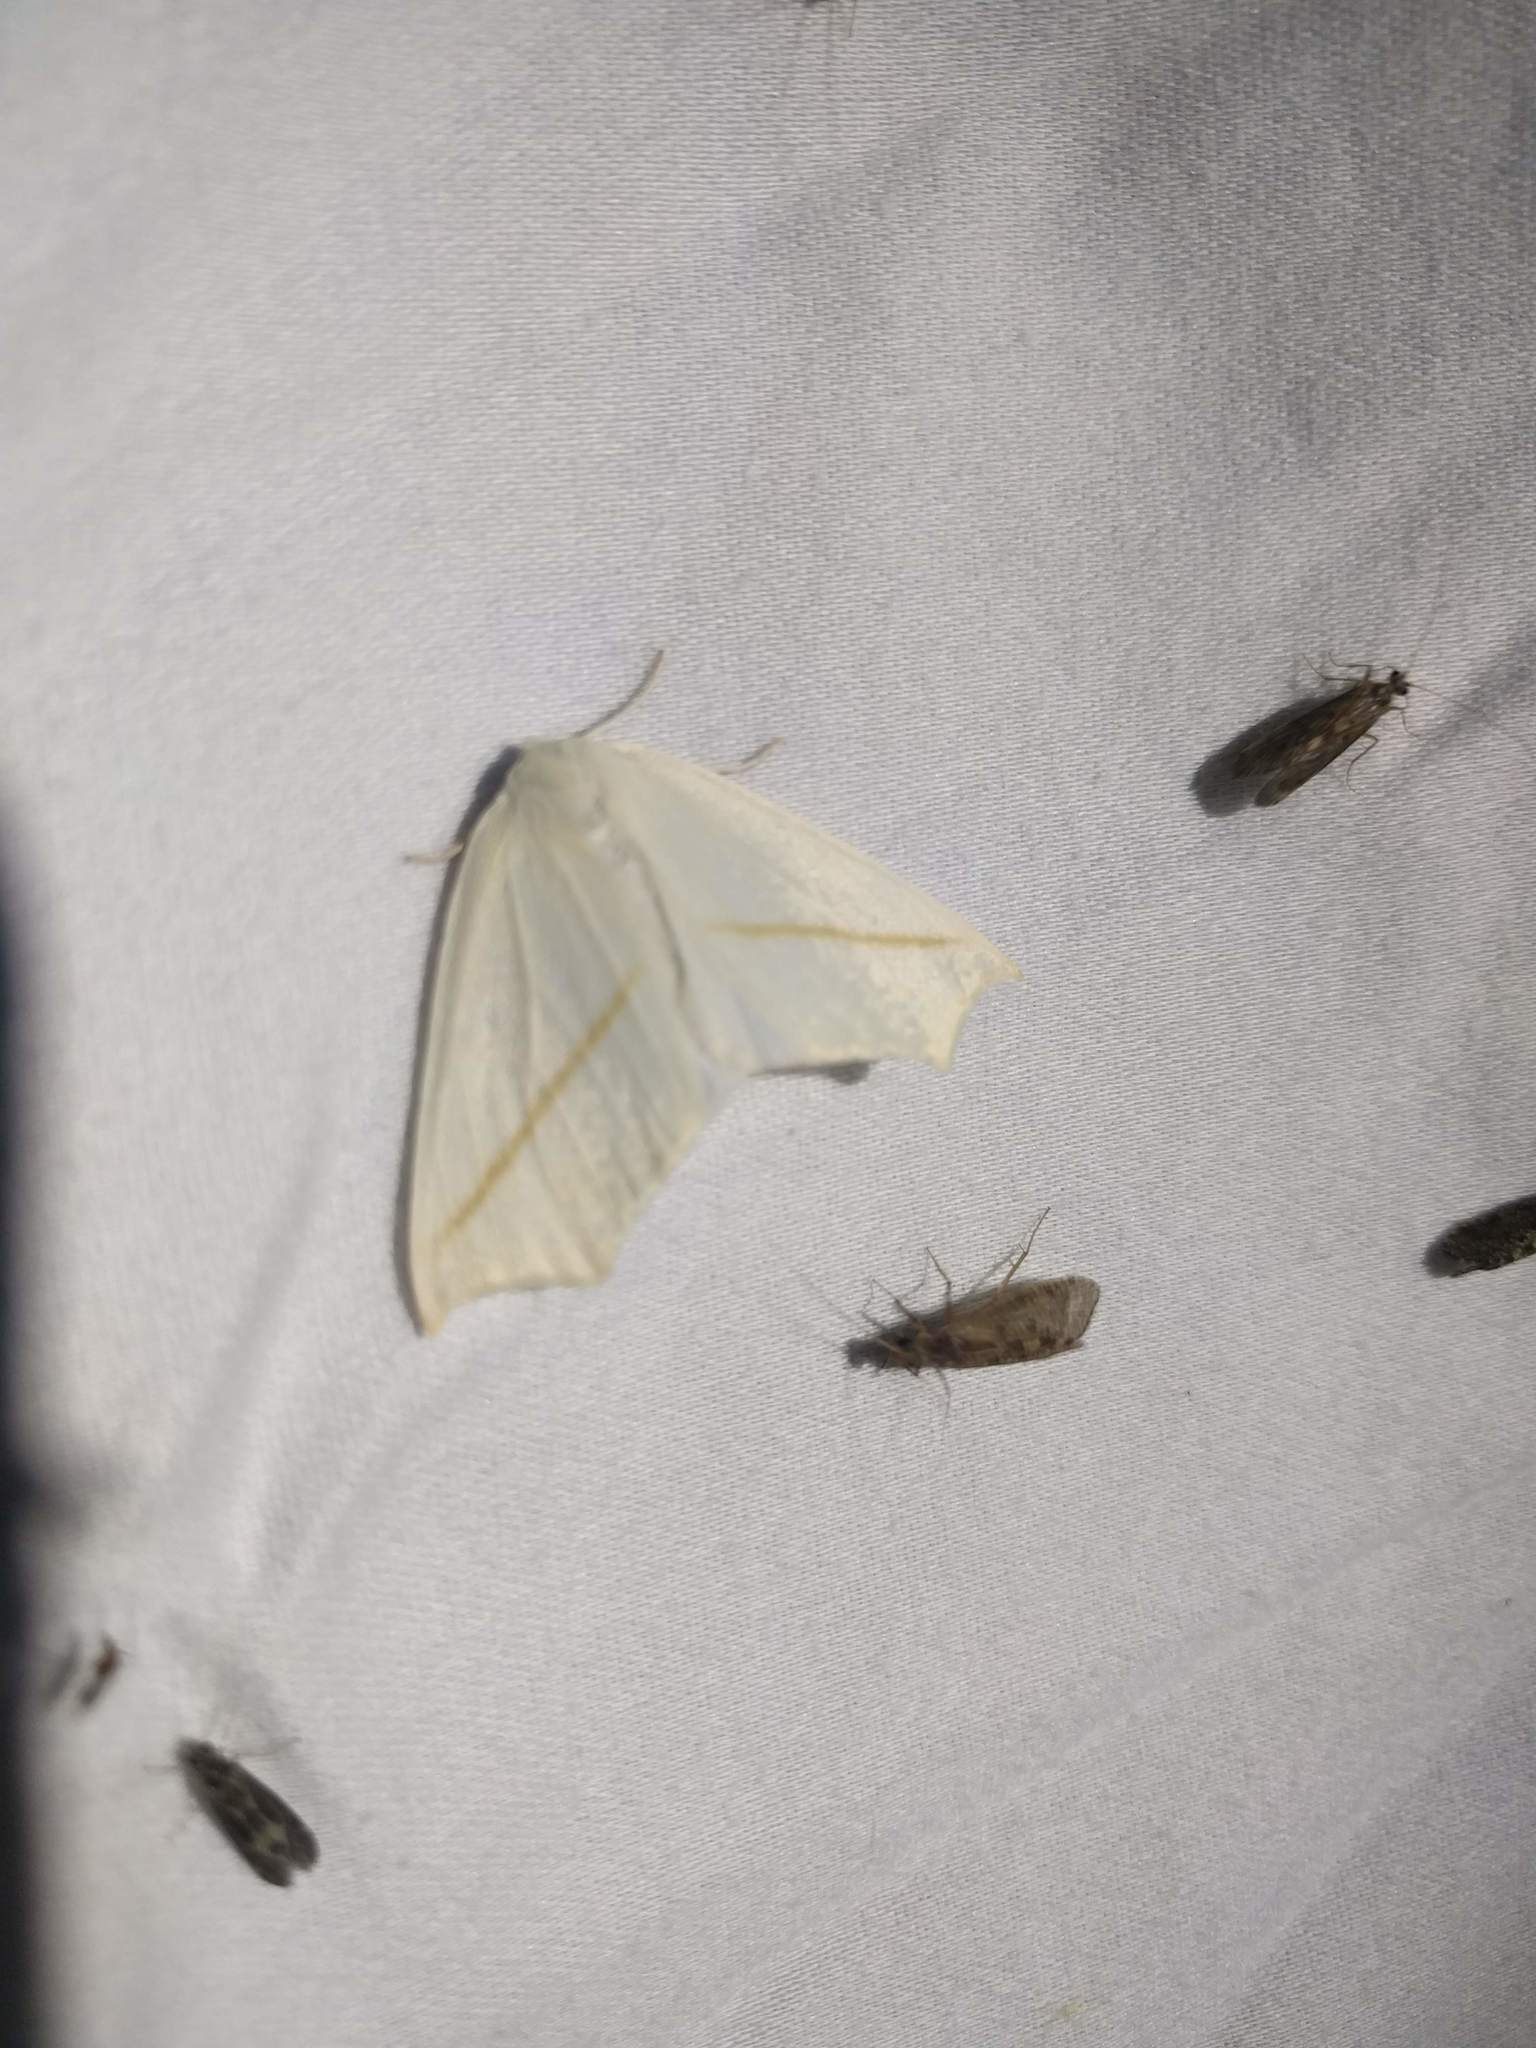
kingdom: Animalia
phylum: Arthropoda
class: Insecta
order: Lepidoptera
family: Geometridae
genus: Tetracis
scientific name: Tetracis cachexiata
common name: White slant-line
